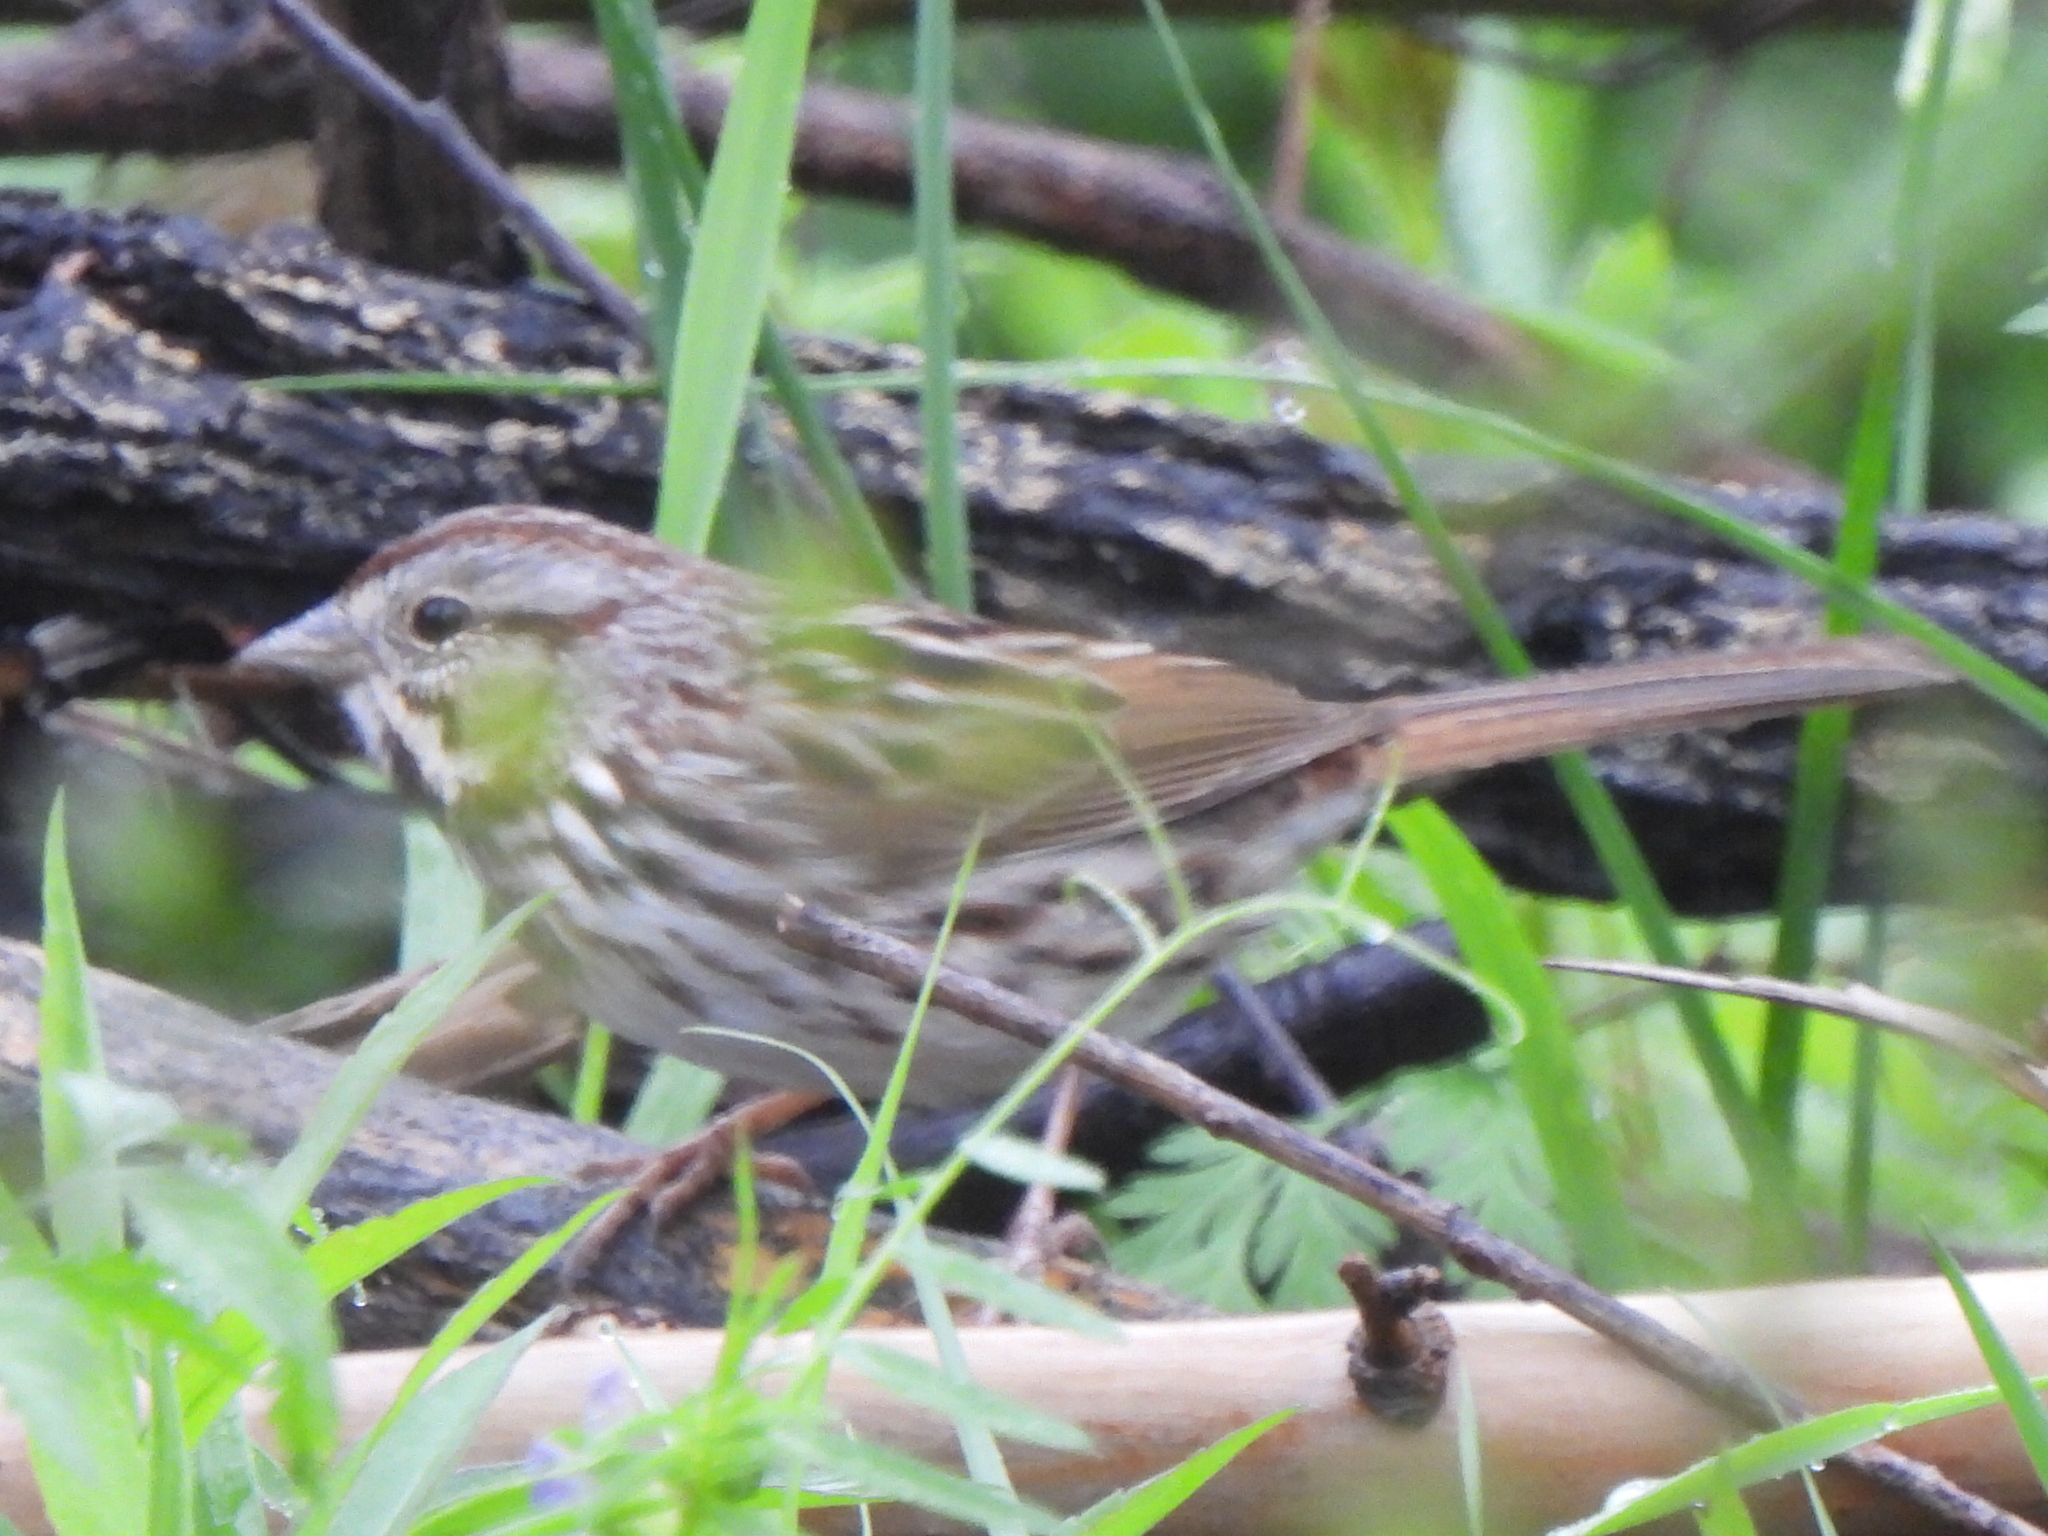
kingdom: Animalia
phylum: Chordata
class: Aves
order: Passeriformes
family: Passerellidae
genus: Melospiza
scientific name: Melospiza melodia
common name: Song sparrow
